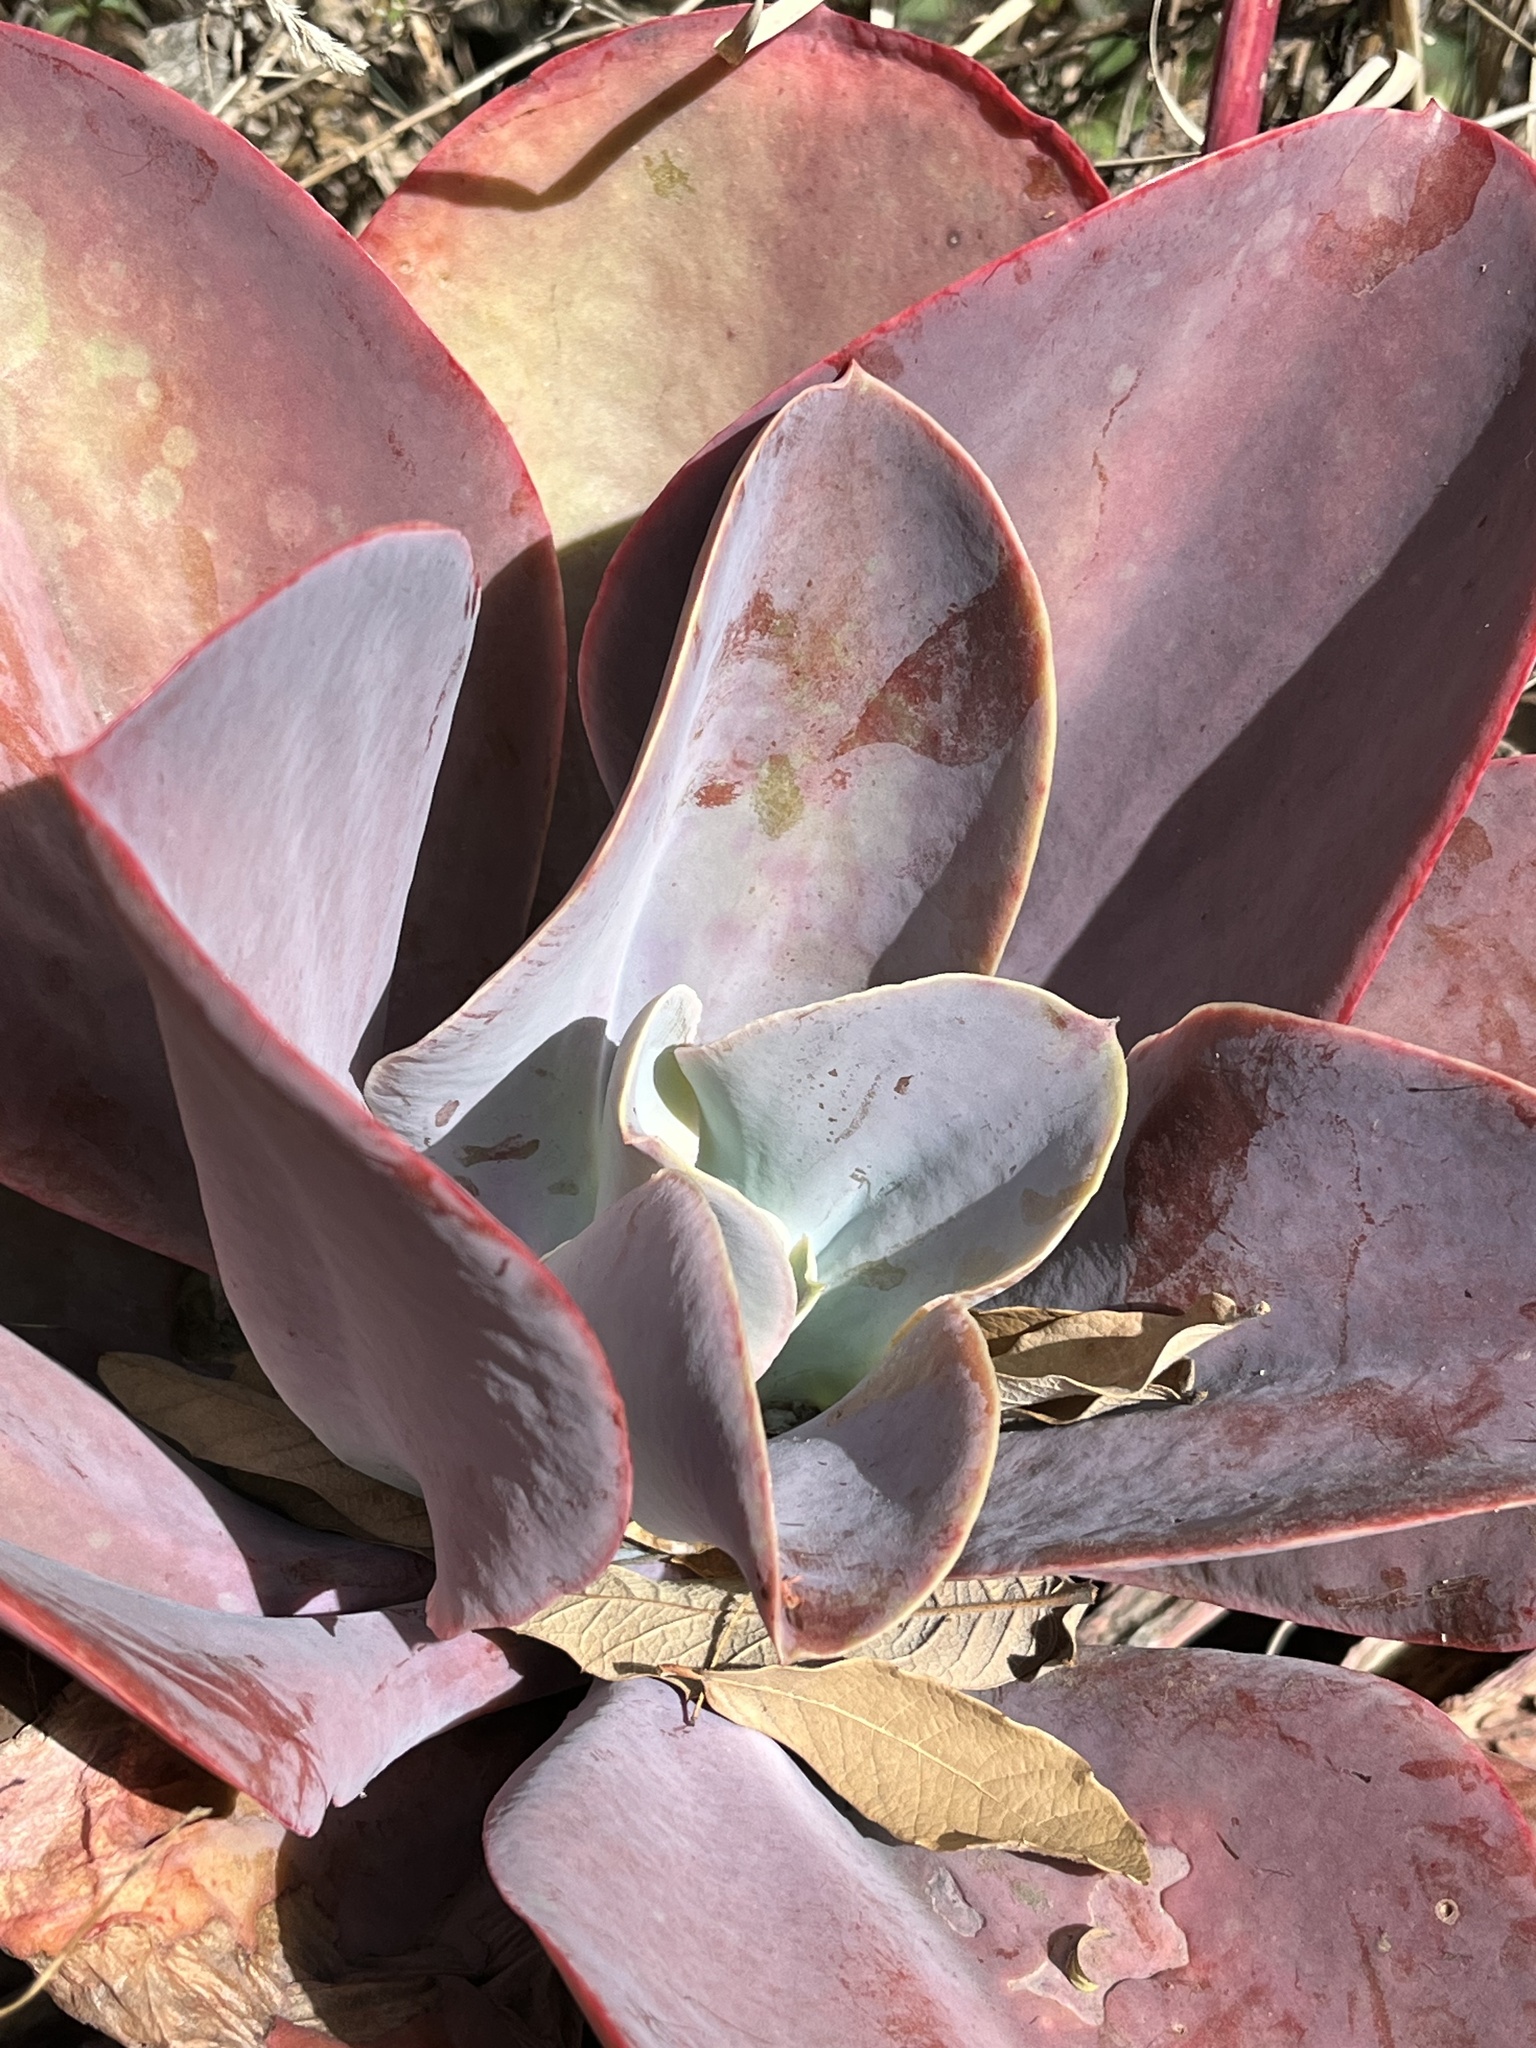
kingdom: Plantae
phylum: Tracheophyta
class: Magnoliopsida
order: Saxifragales
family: Crassulaceae
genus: Echeveria
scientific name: Echeveria gibbiflora
